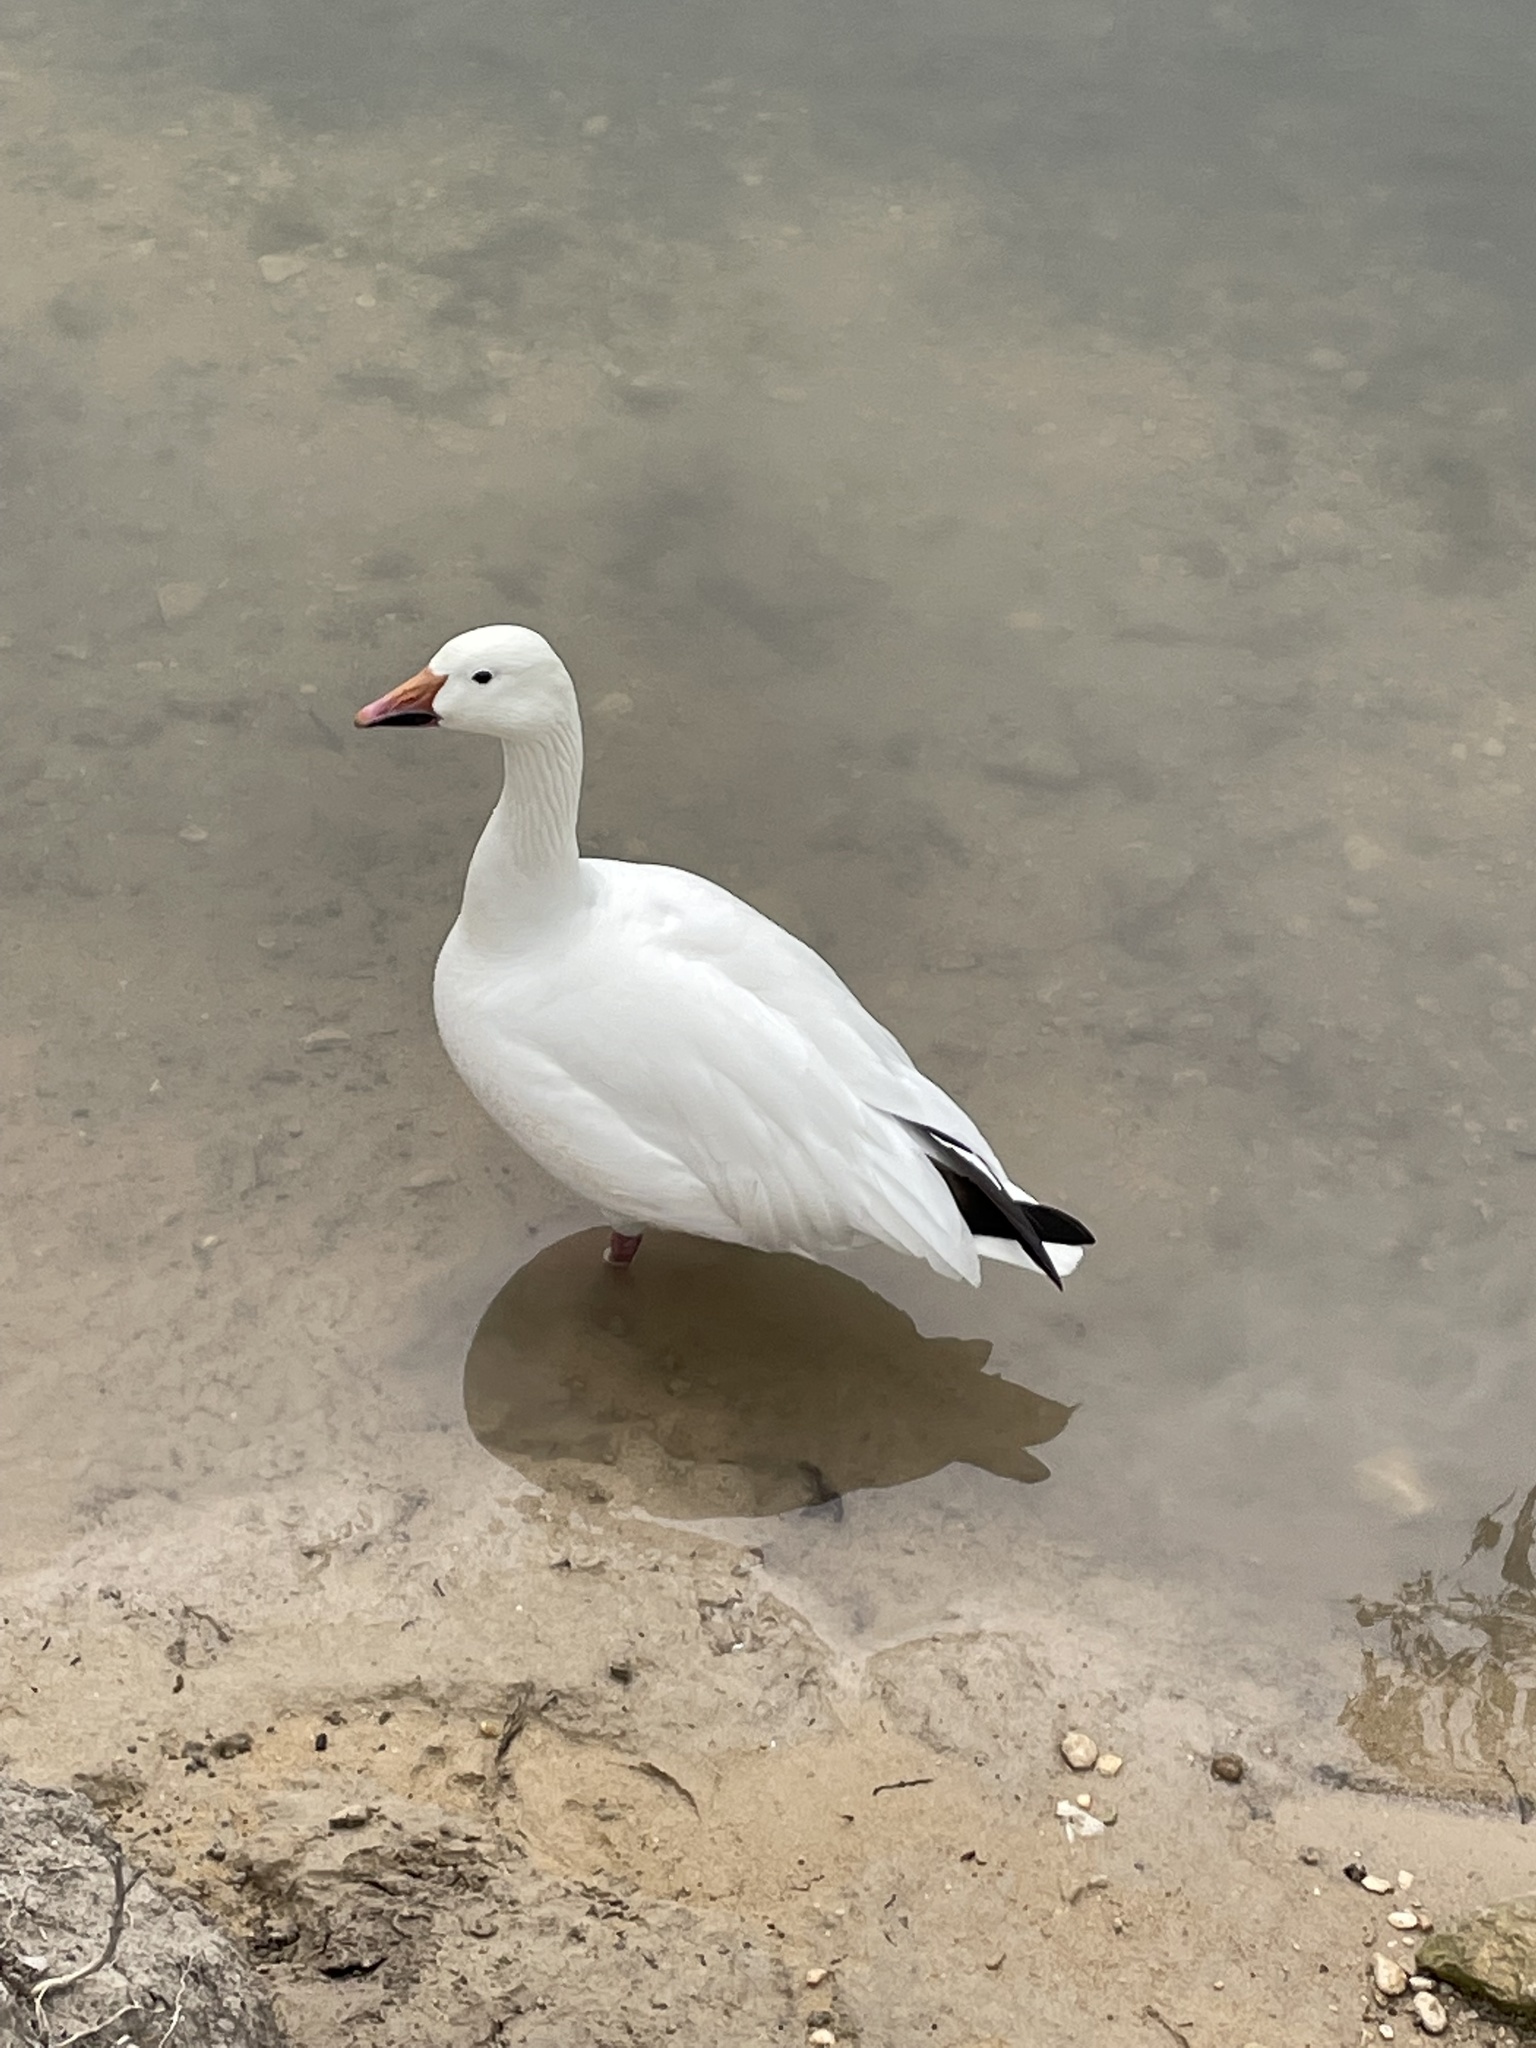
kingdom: Animalia
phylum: Chordata
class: Aves
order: Anseriformes
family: Anatidae
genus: Anser
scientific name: Anser caerulescens
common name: Snow goose
